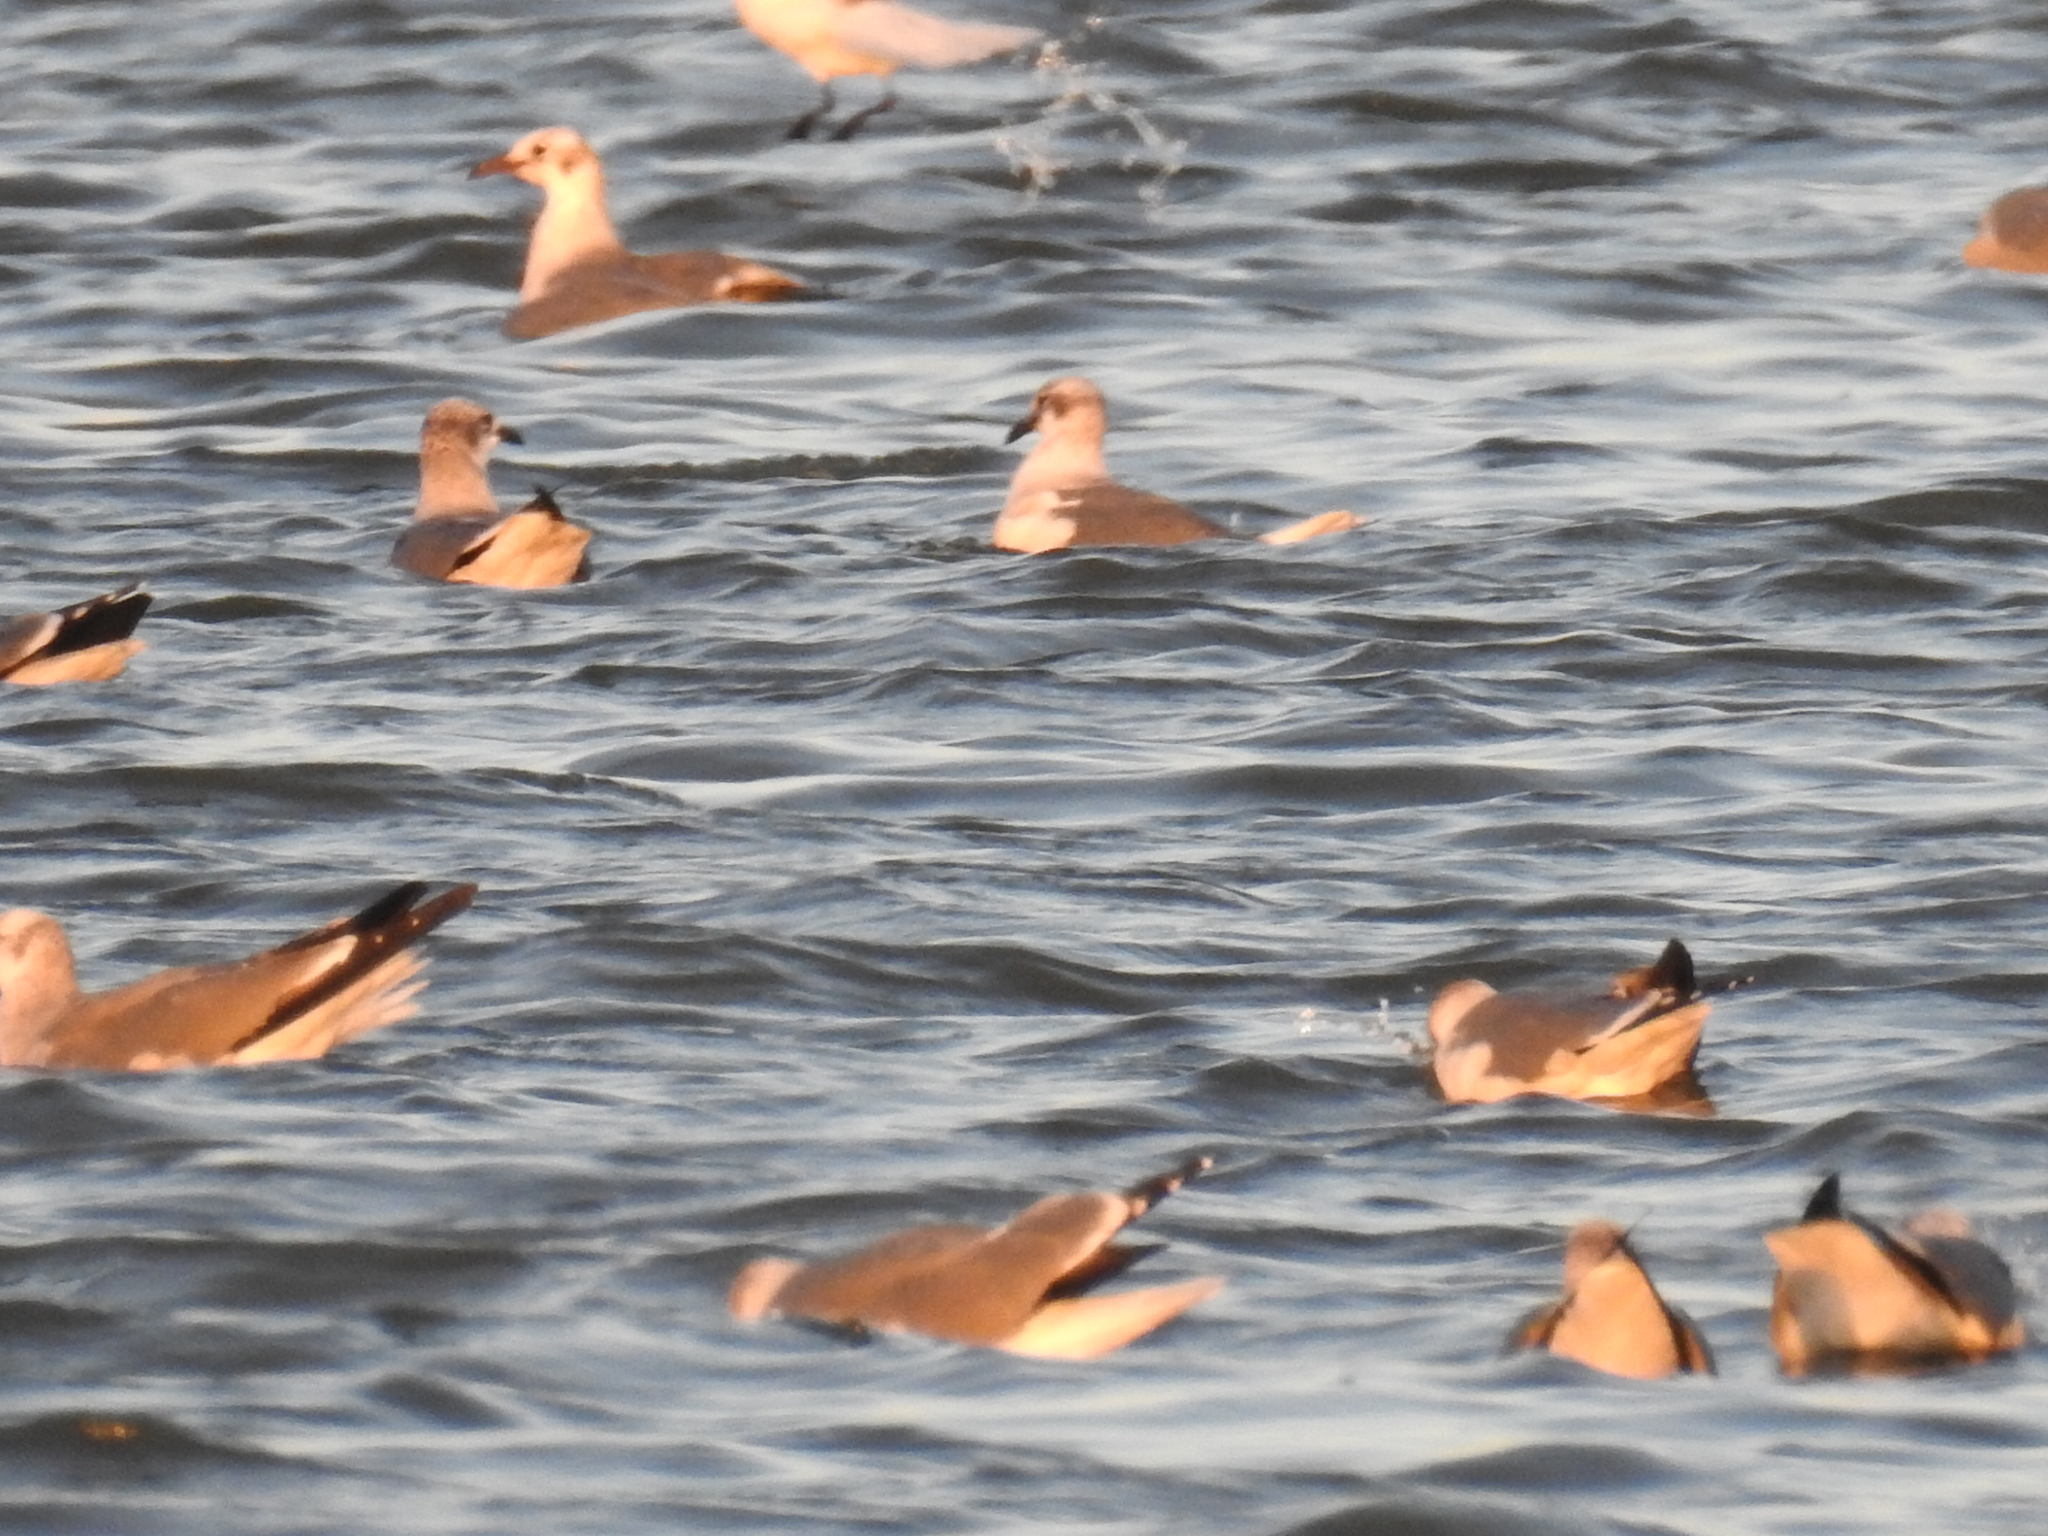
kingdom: Animalia
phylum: Chordata
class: Aves
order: Charadriiformes
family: Laridae
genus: Leucophaeus
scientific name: Leucophaeus atricilla
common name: Laughing gull
